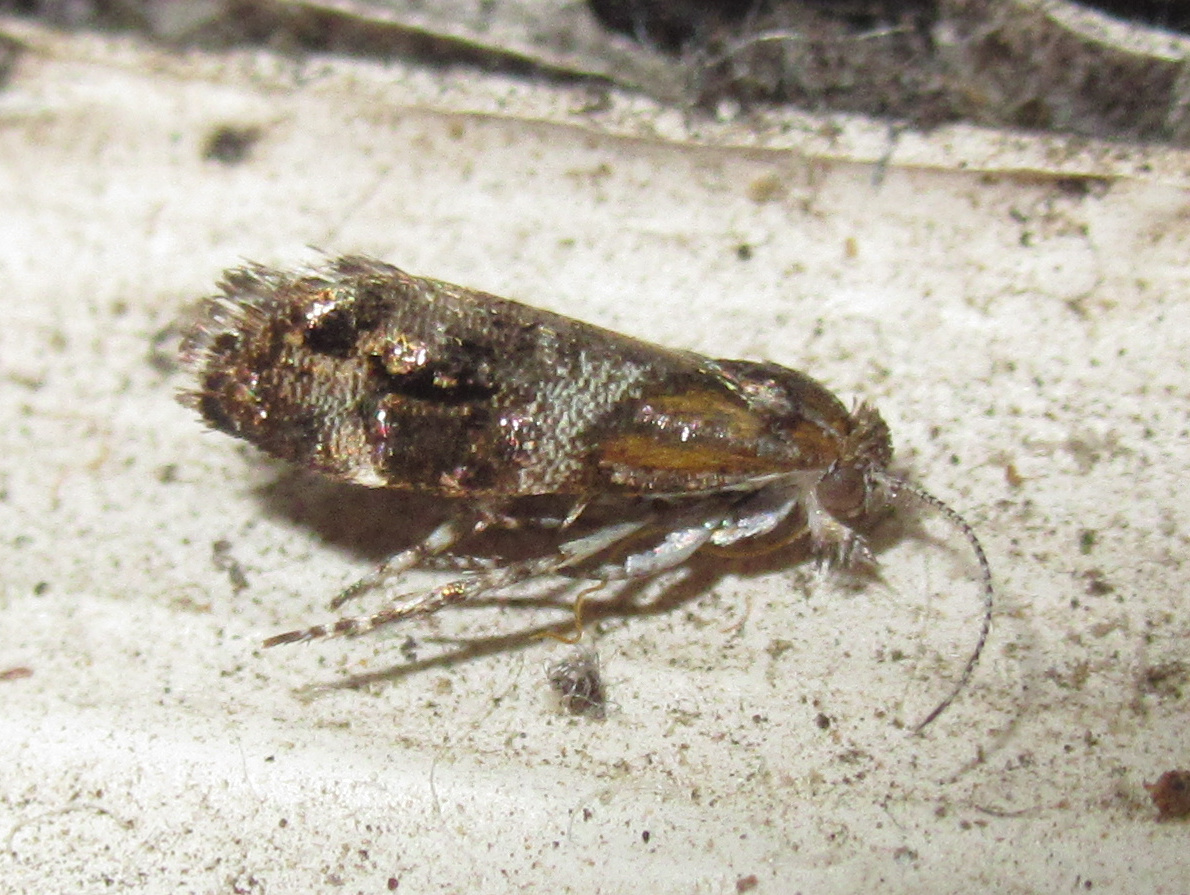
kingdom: Animalia
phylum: Arthropoda
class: Insecta
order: Lepidoptera
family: Choreutidae
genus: Tebenna
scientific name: Tebenna micalis
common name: Vagrant twitcher
